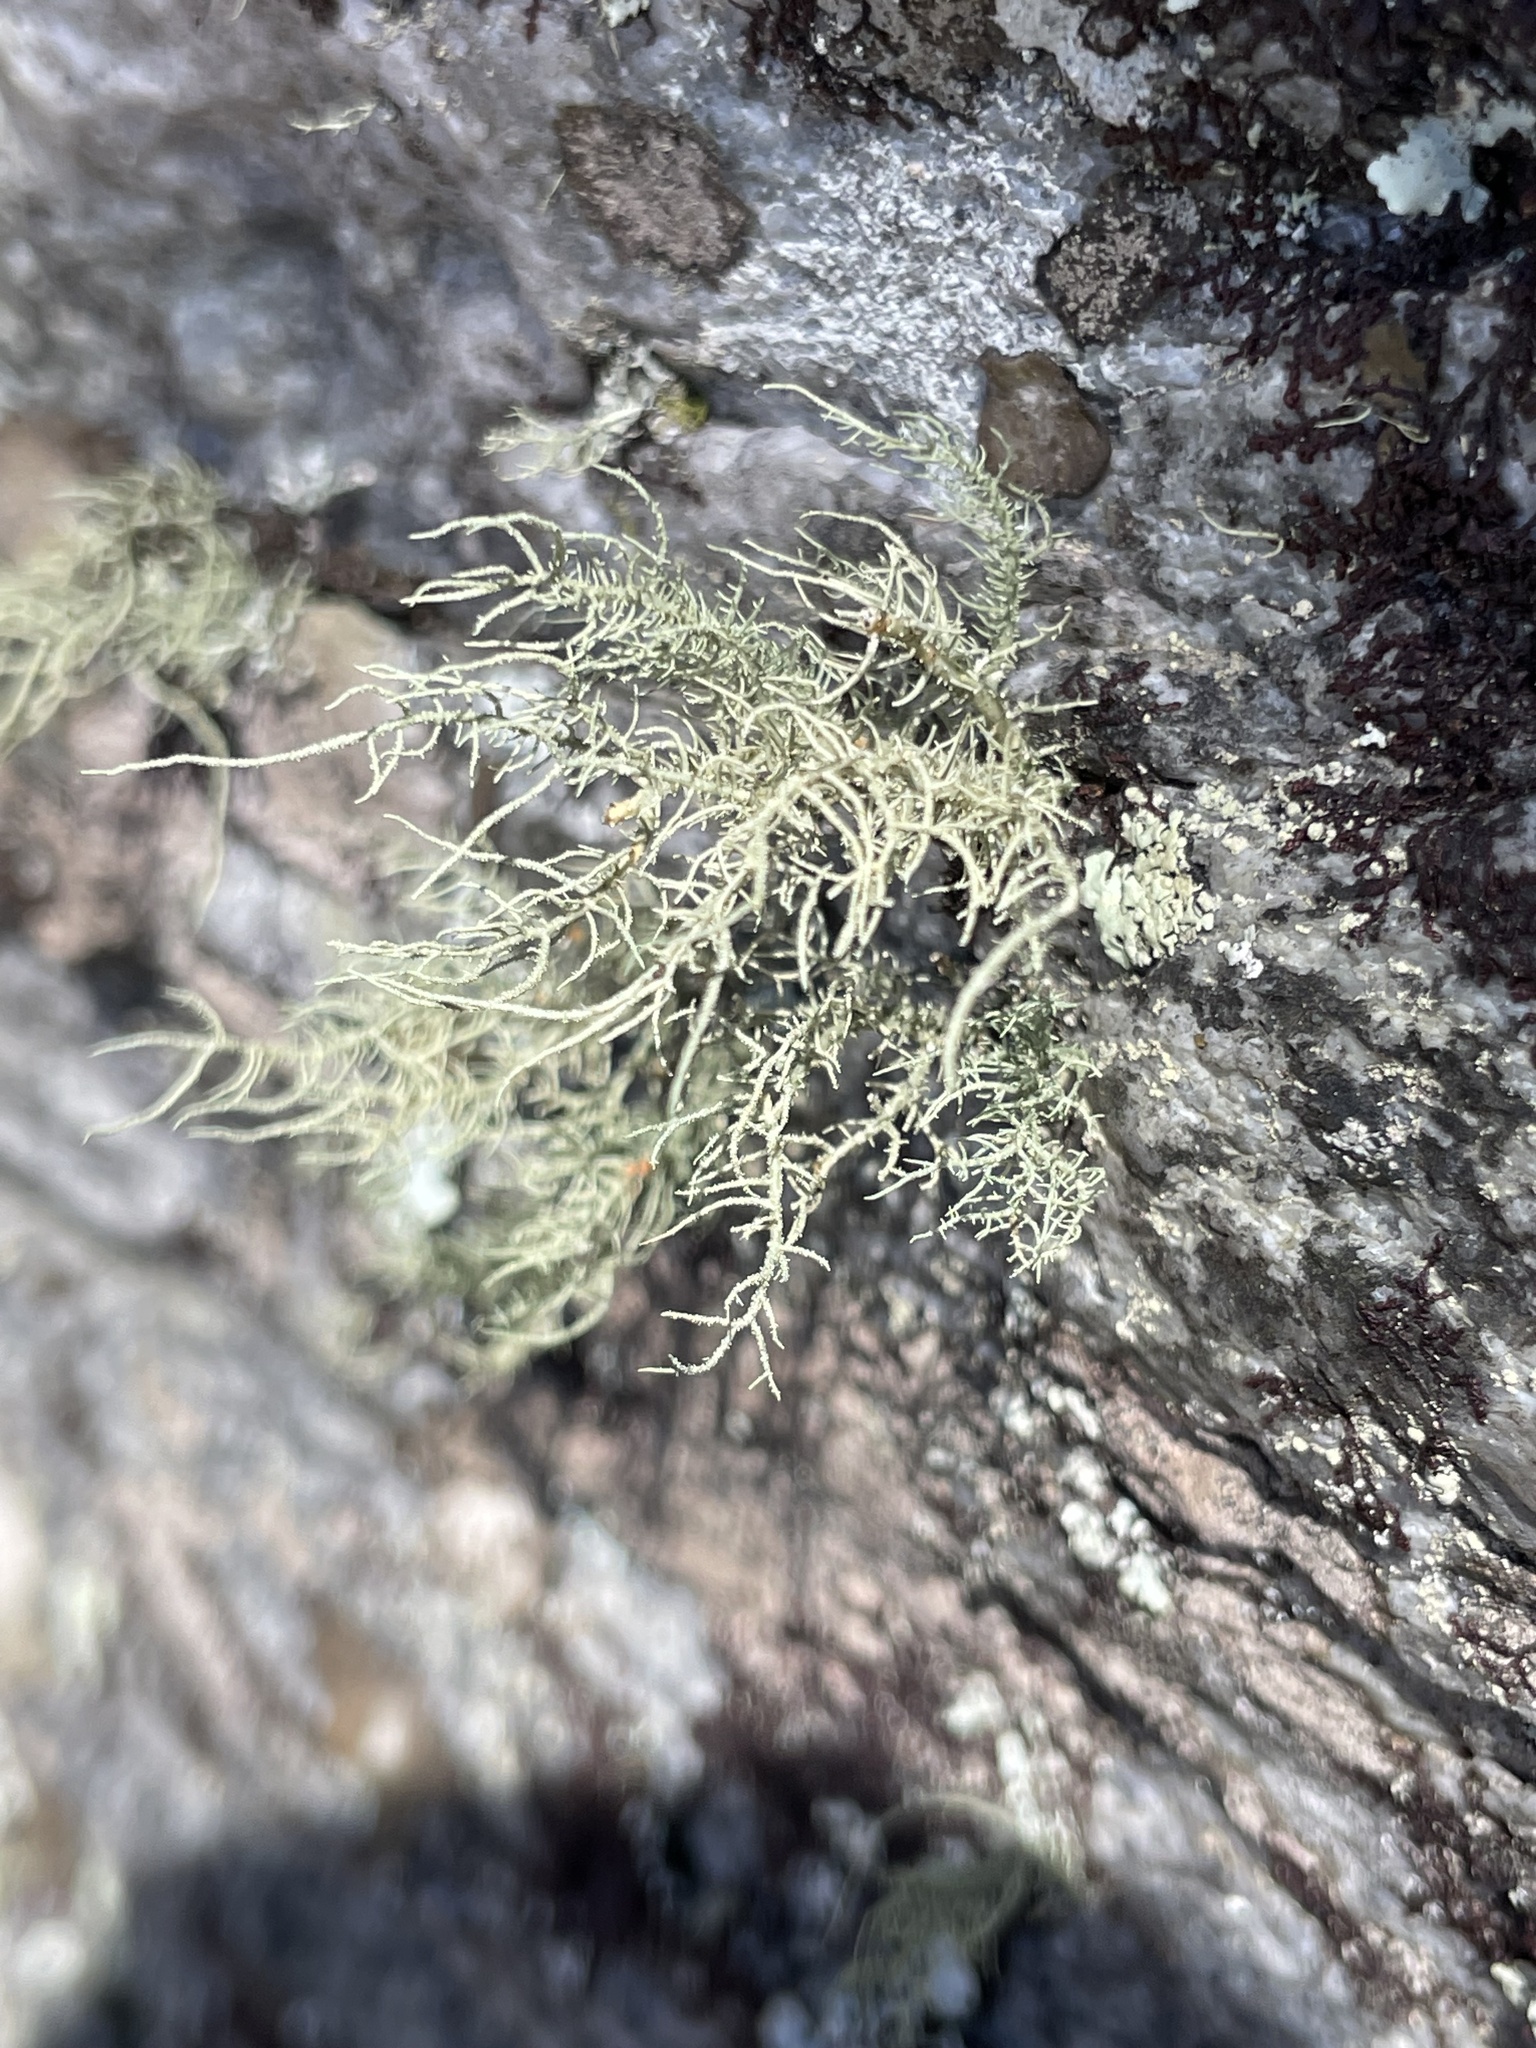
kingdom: Fungi
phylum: Ascomycota
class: Lecanoromycetes
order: Lecanorales
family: Parmeliaceae
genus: Usnea
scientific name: Usnea
